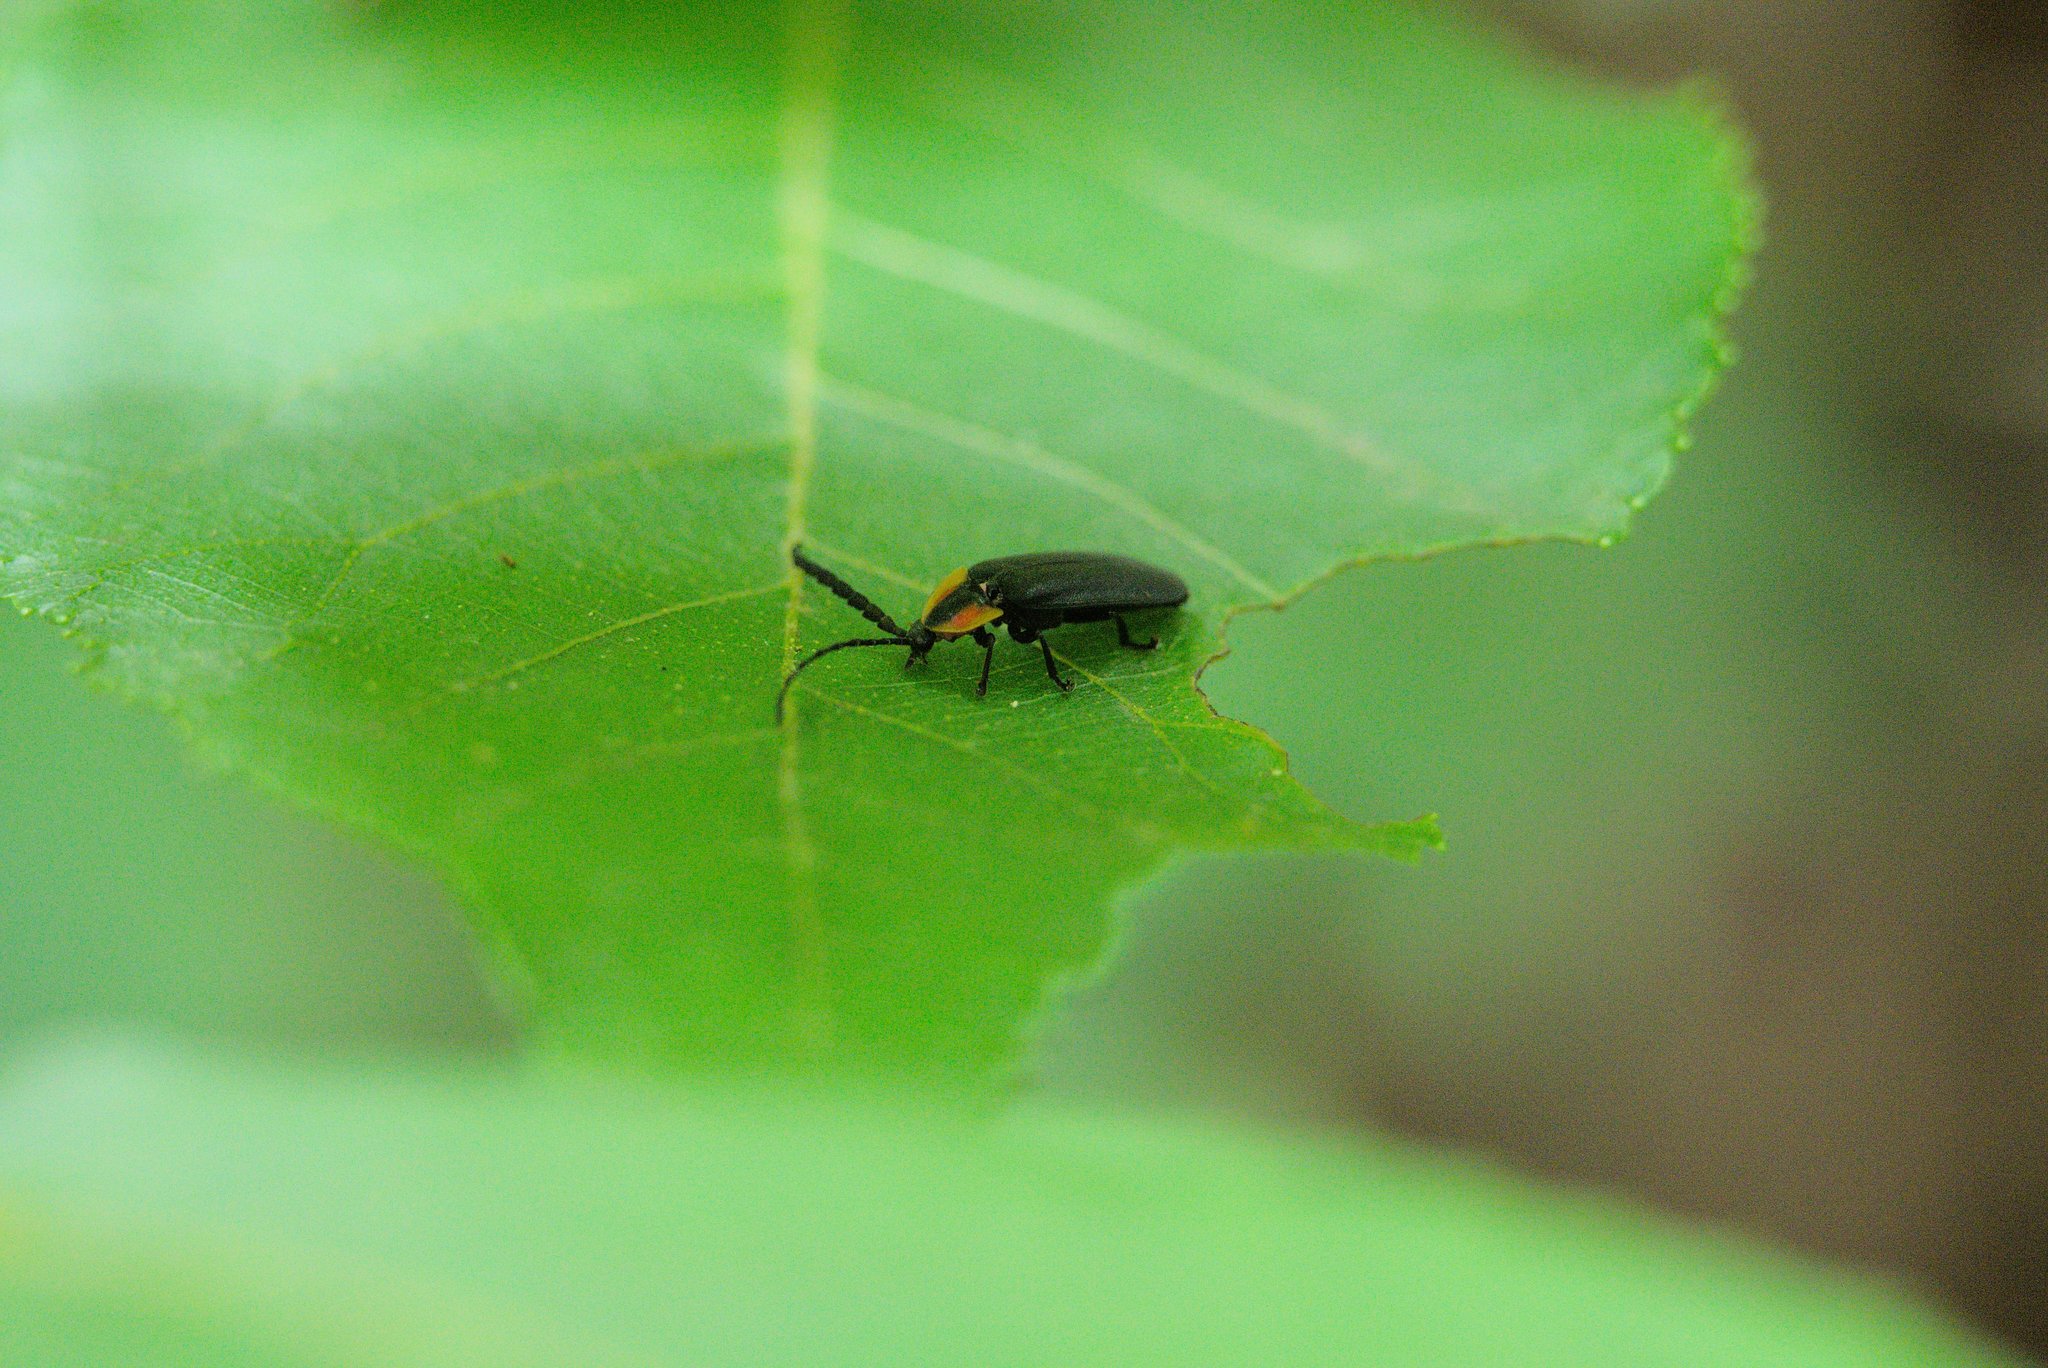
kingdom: Animalia
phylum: Arthropoda
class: Insecta
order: Coleoptera
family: Lampyridae
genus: Lucidota
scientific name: Lucidota atra
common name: Black firefly
